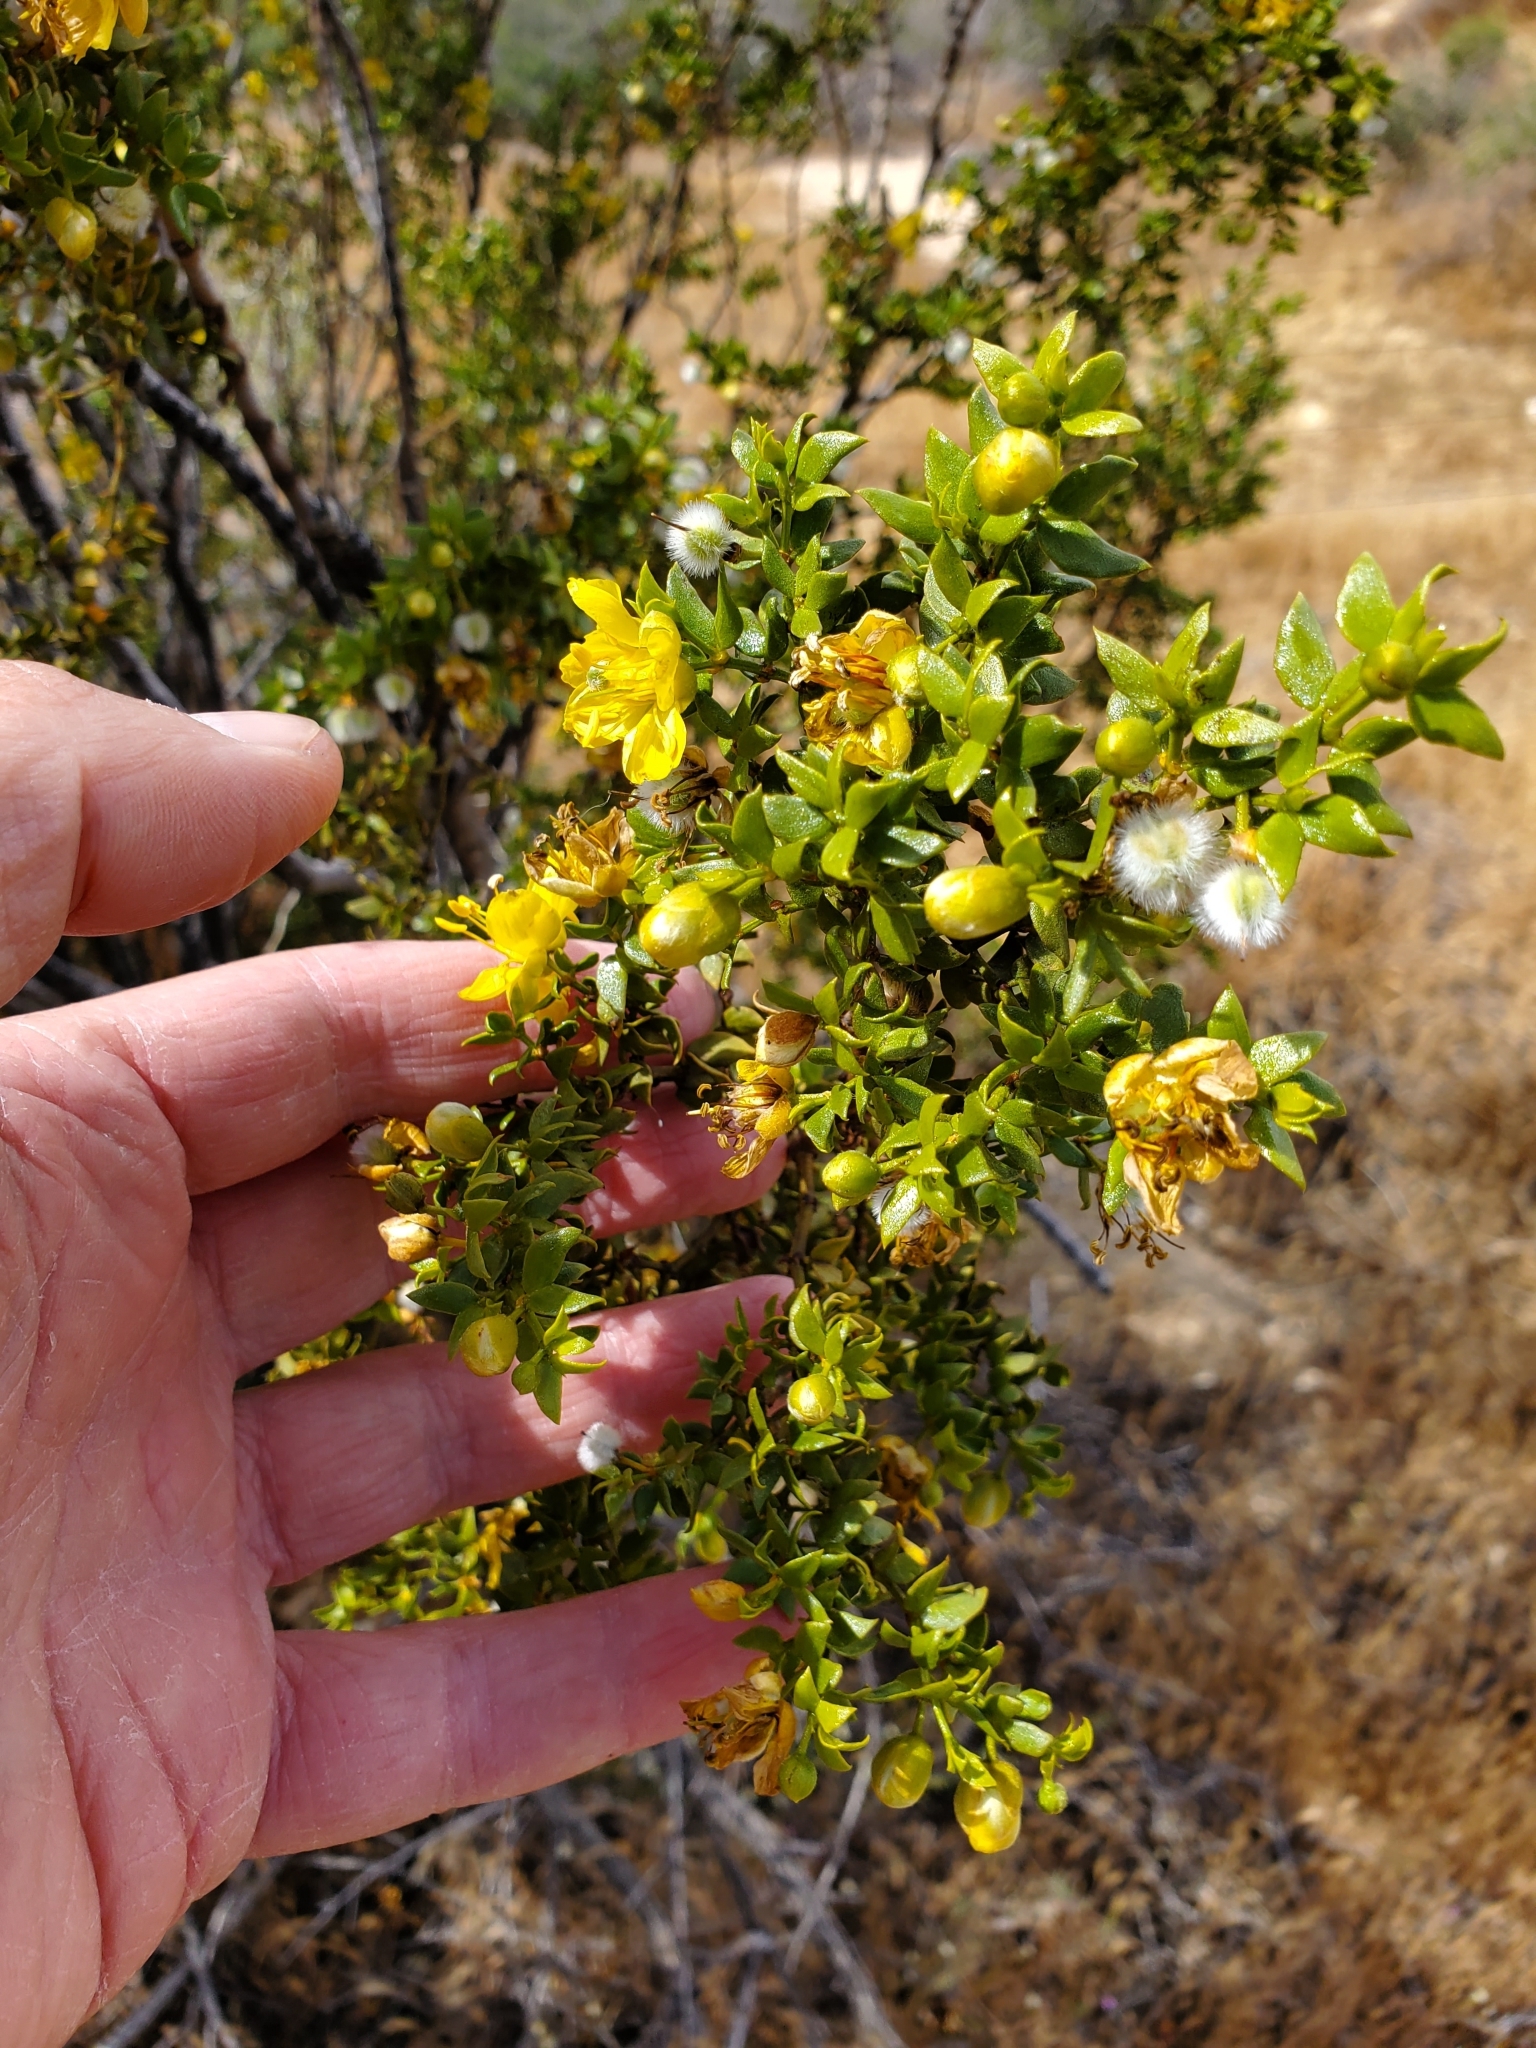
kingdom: Plantae
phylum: Tracheophyta
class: Magnoliopsida
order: Zygophyllales
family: Zygophyllaceae
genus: Larrea
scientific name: Larrea tridentata
